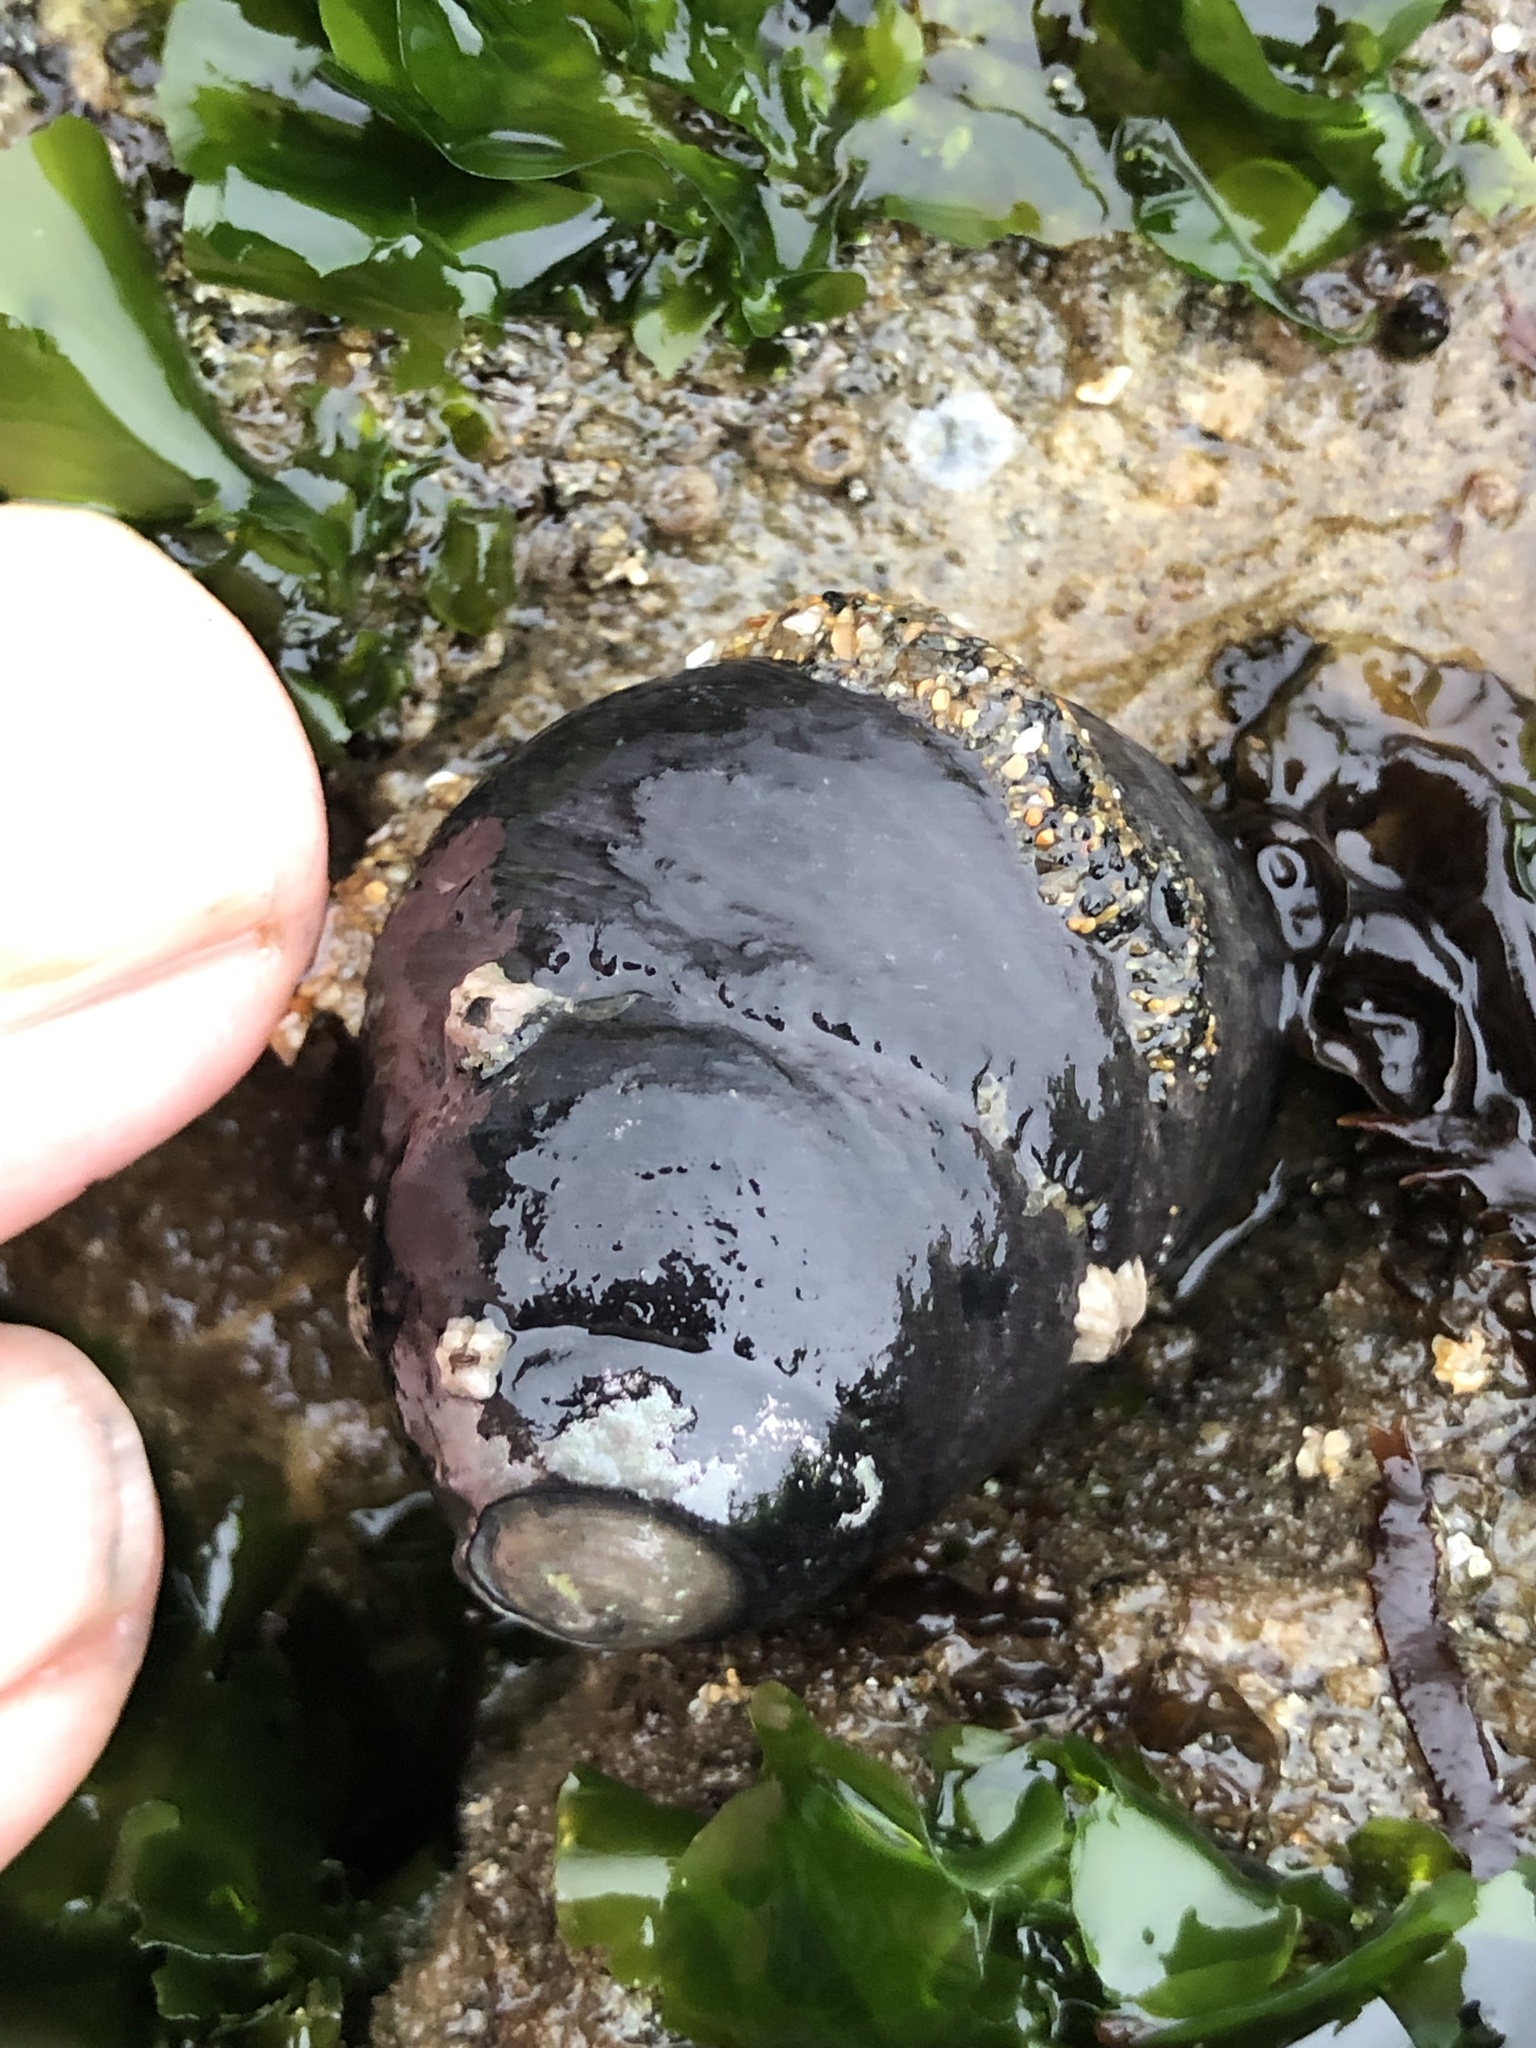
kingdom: Animalia
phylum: Mollusca
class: Gastropoda
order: Trochida
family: Tegulidae
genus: Tegula
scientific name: Tegula funebralis
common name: Black tegula
